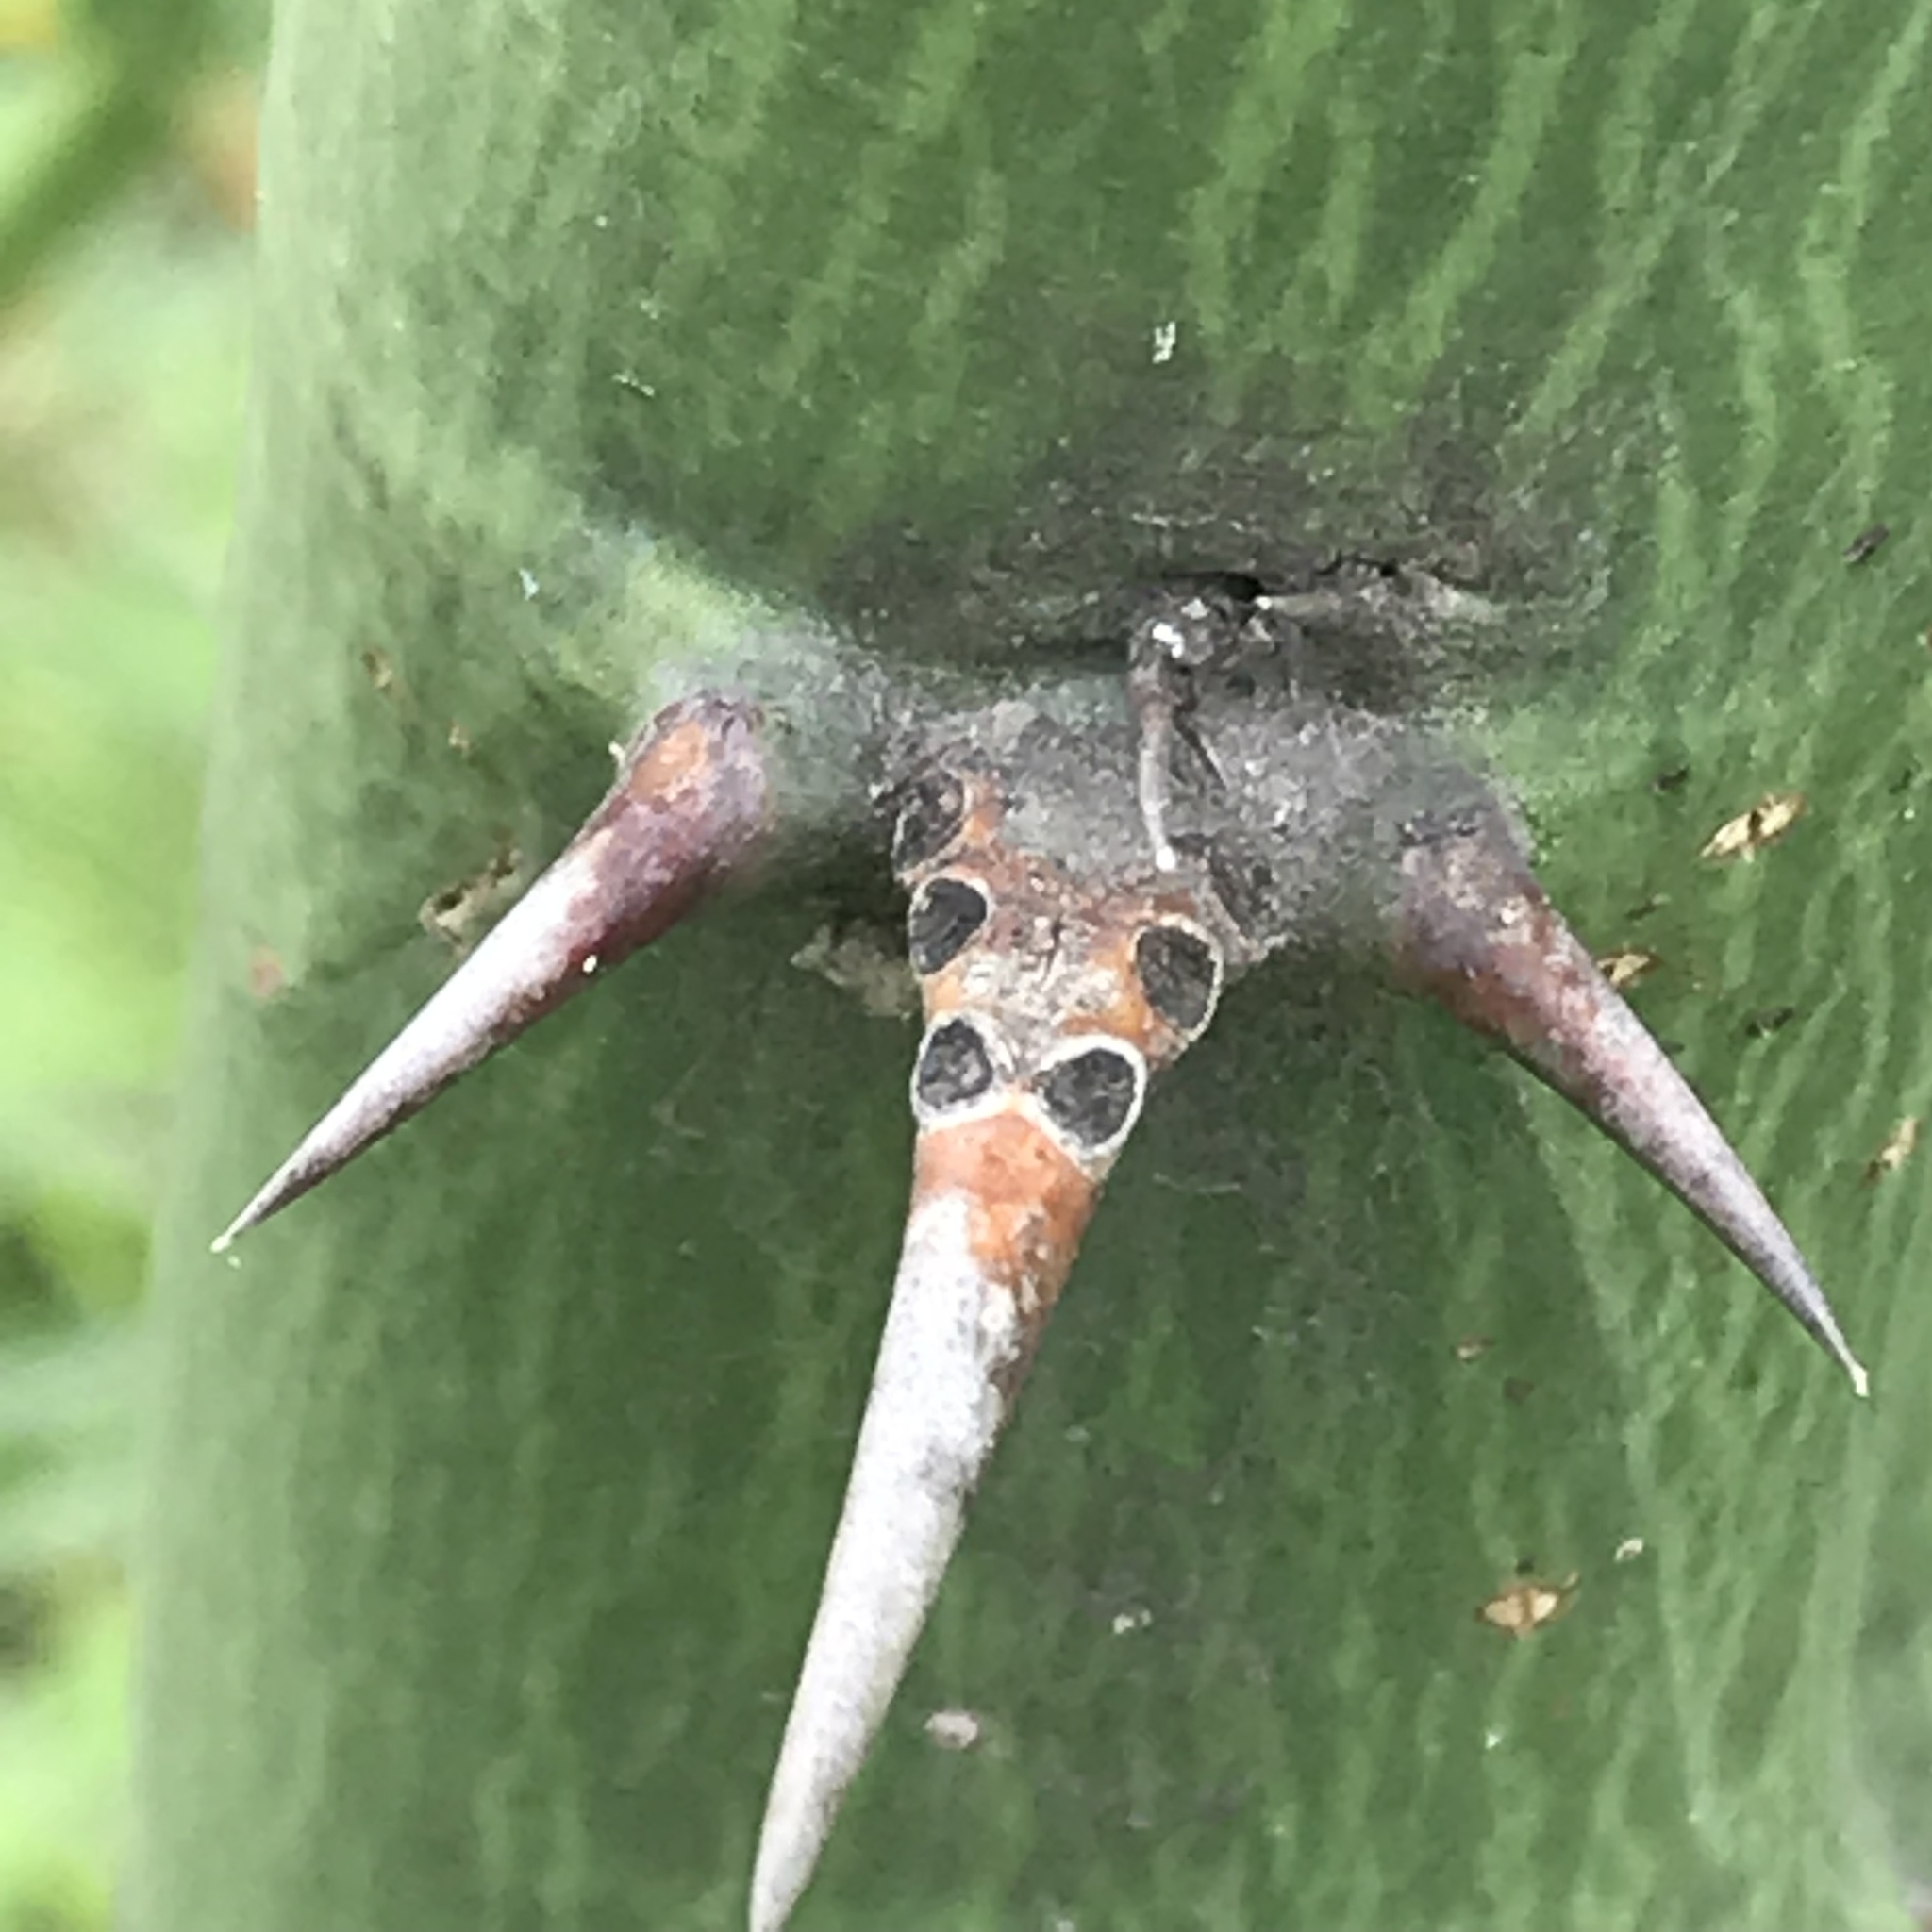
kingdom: Plantae
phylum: Tracheophyta
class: Magnoliopsida
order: Fabales
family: Fabaceae
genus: Parkinsonia
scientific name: Parkinsonia aculeata
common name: Jerusalem thorn
